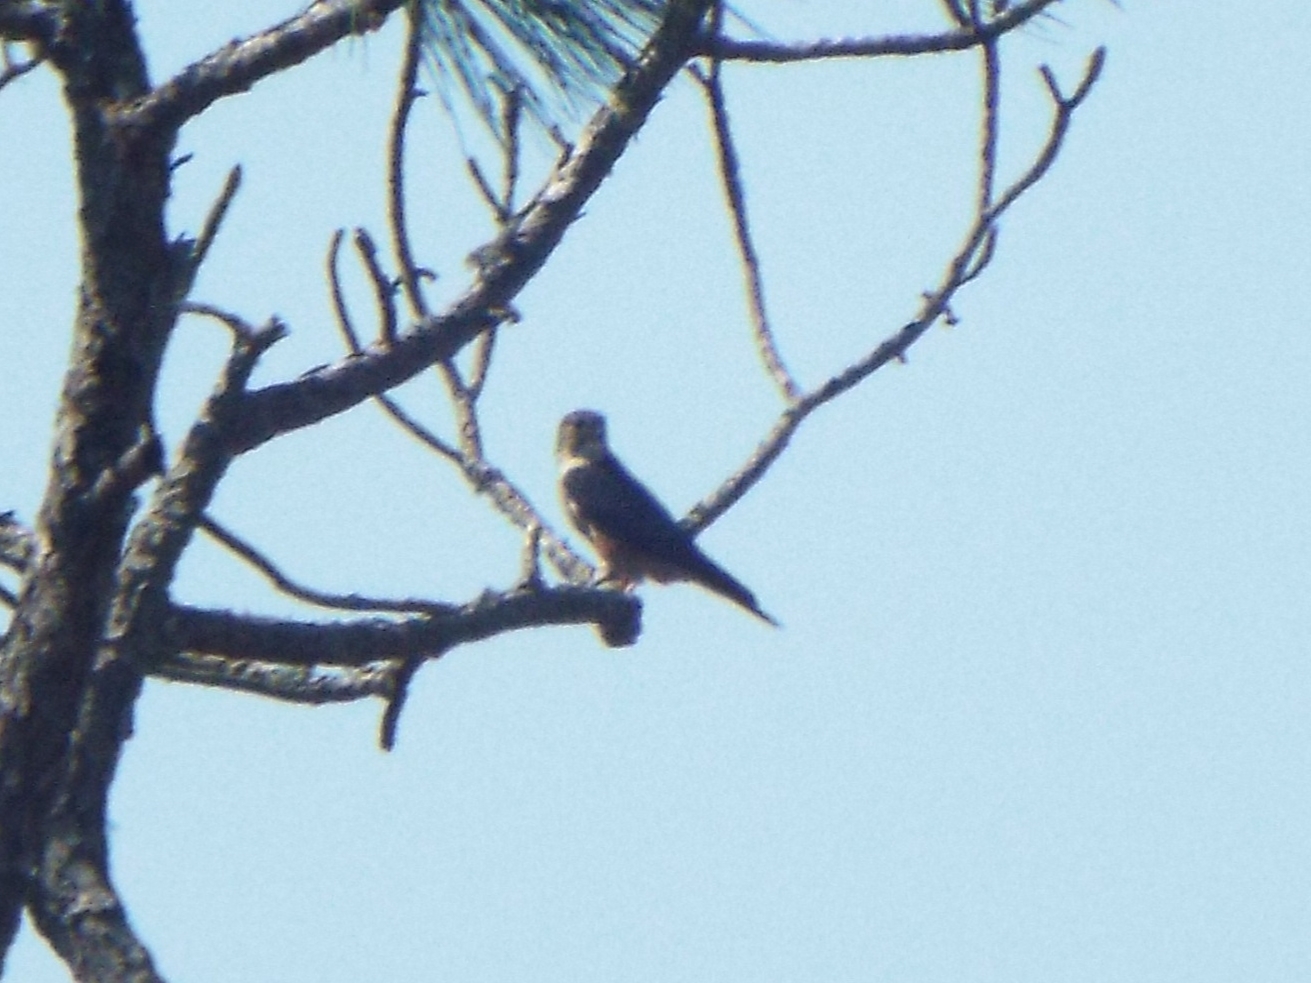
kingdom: Animalia
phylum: Chordata
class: Aves
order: Falconiformes
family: Falconidae
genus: Falco
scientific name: Falco columbarius
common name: Merlin
